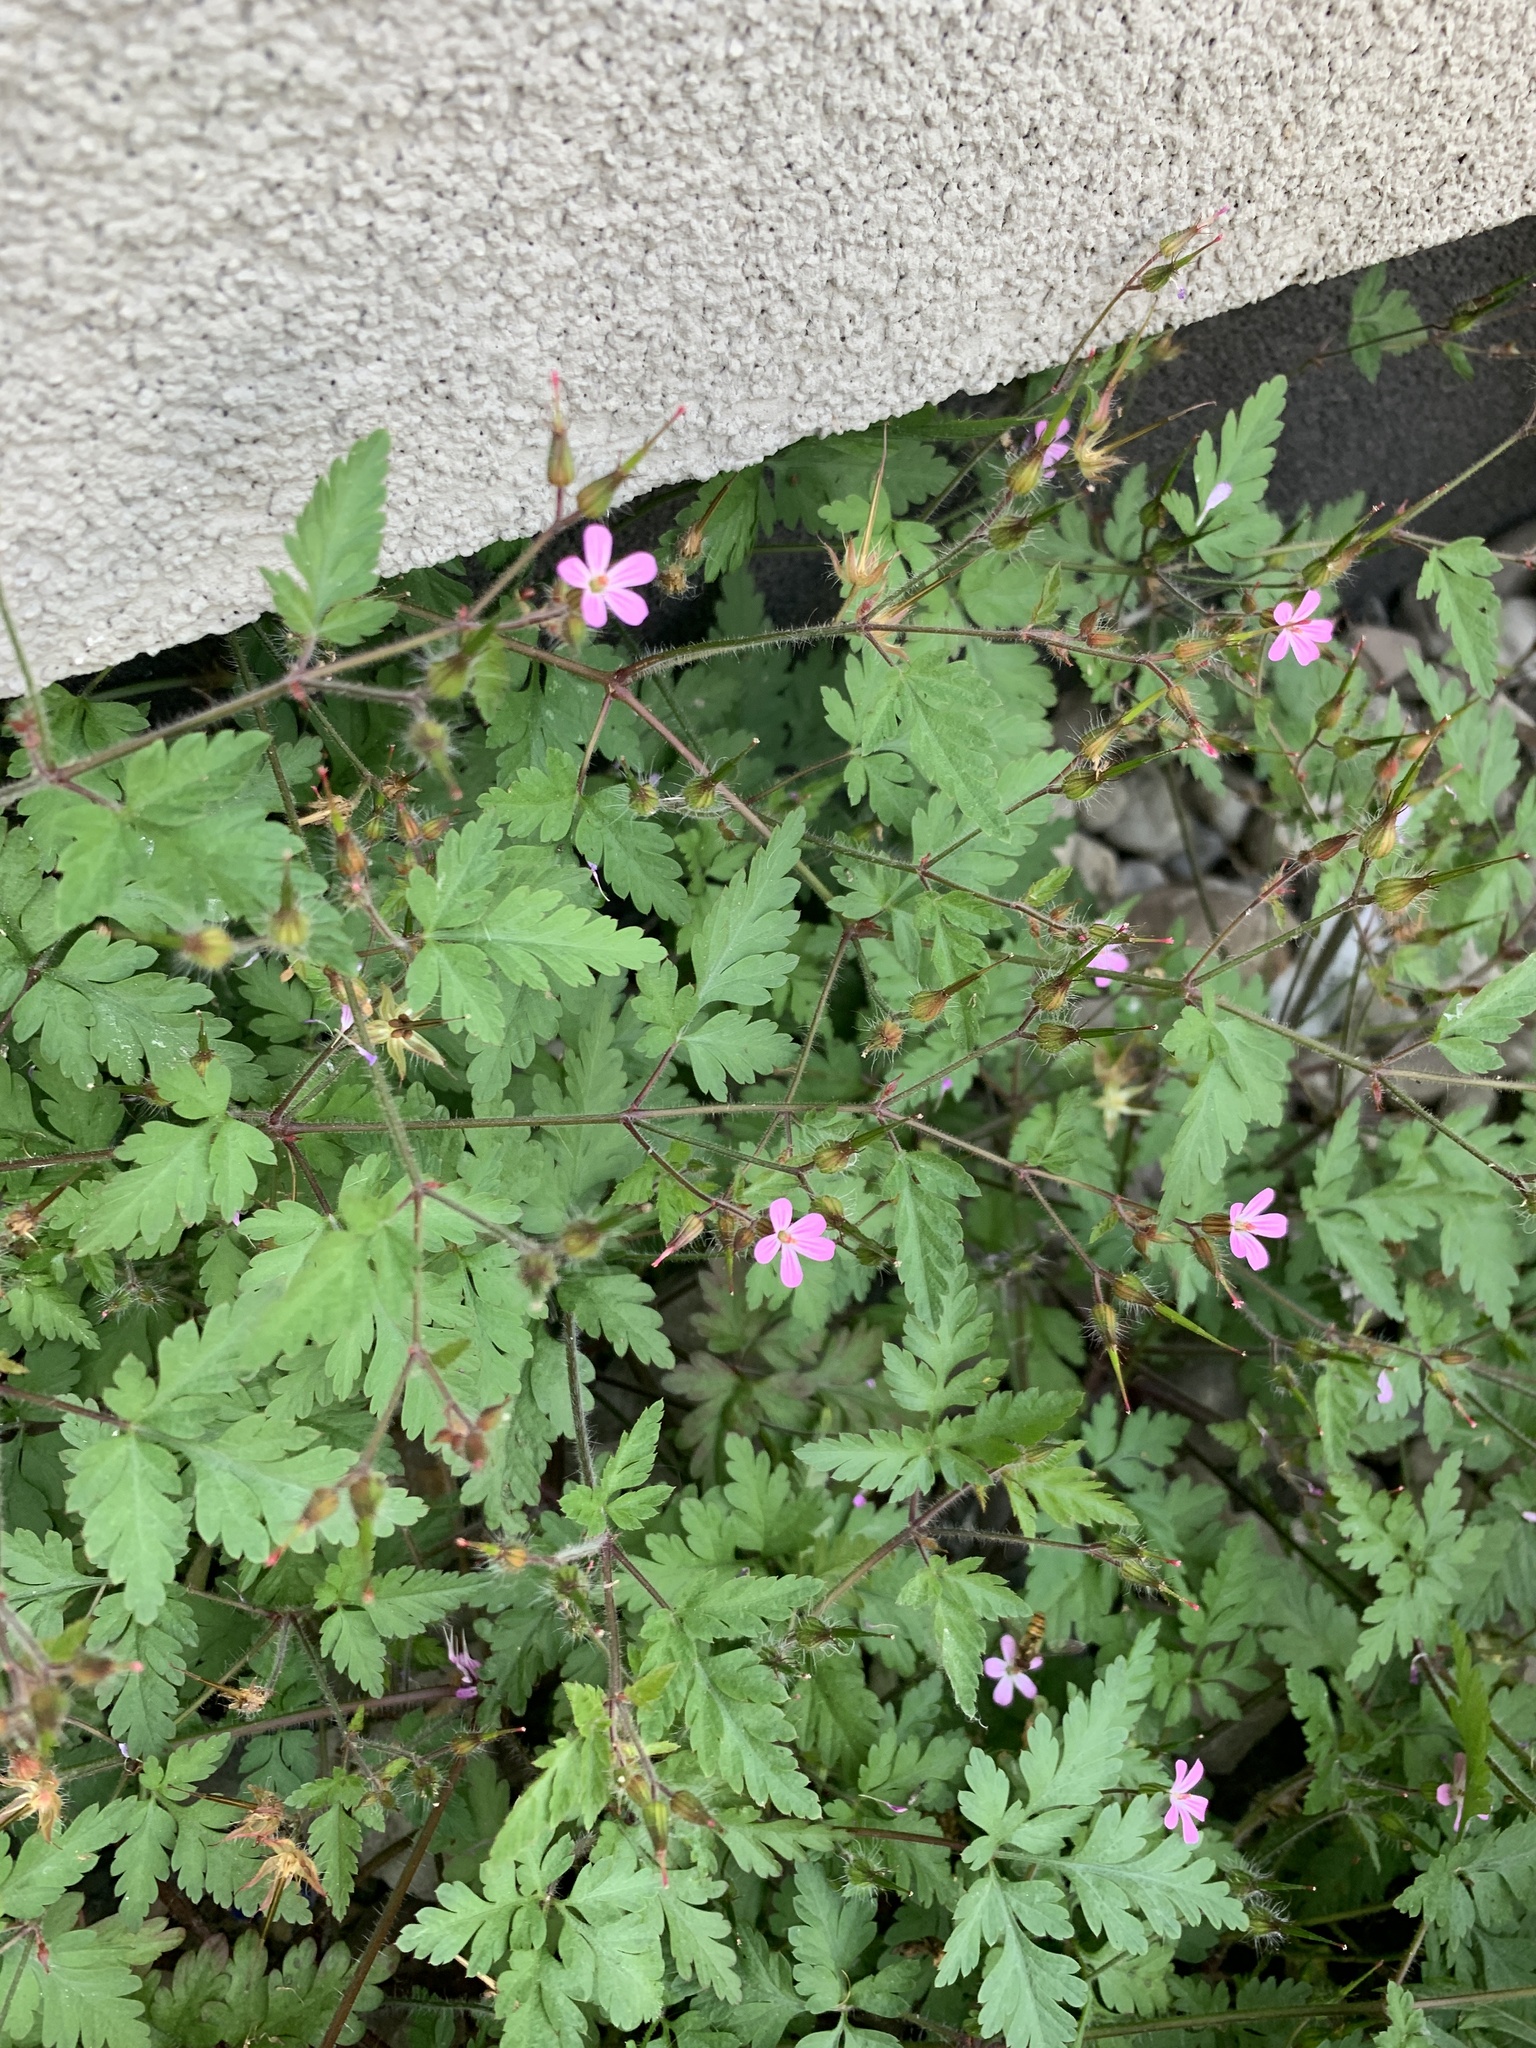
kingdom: Plantae
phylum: Tracheophyta
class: Magnoliopsida
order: Geraniales
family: Geraniaceae
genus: Geranium
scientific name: Geranium robertianum
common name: Herb-robert
